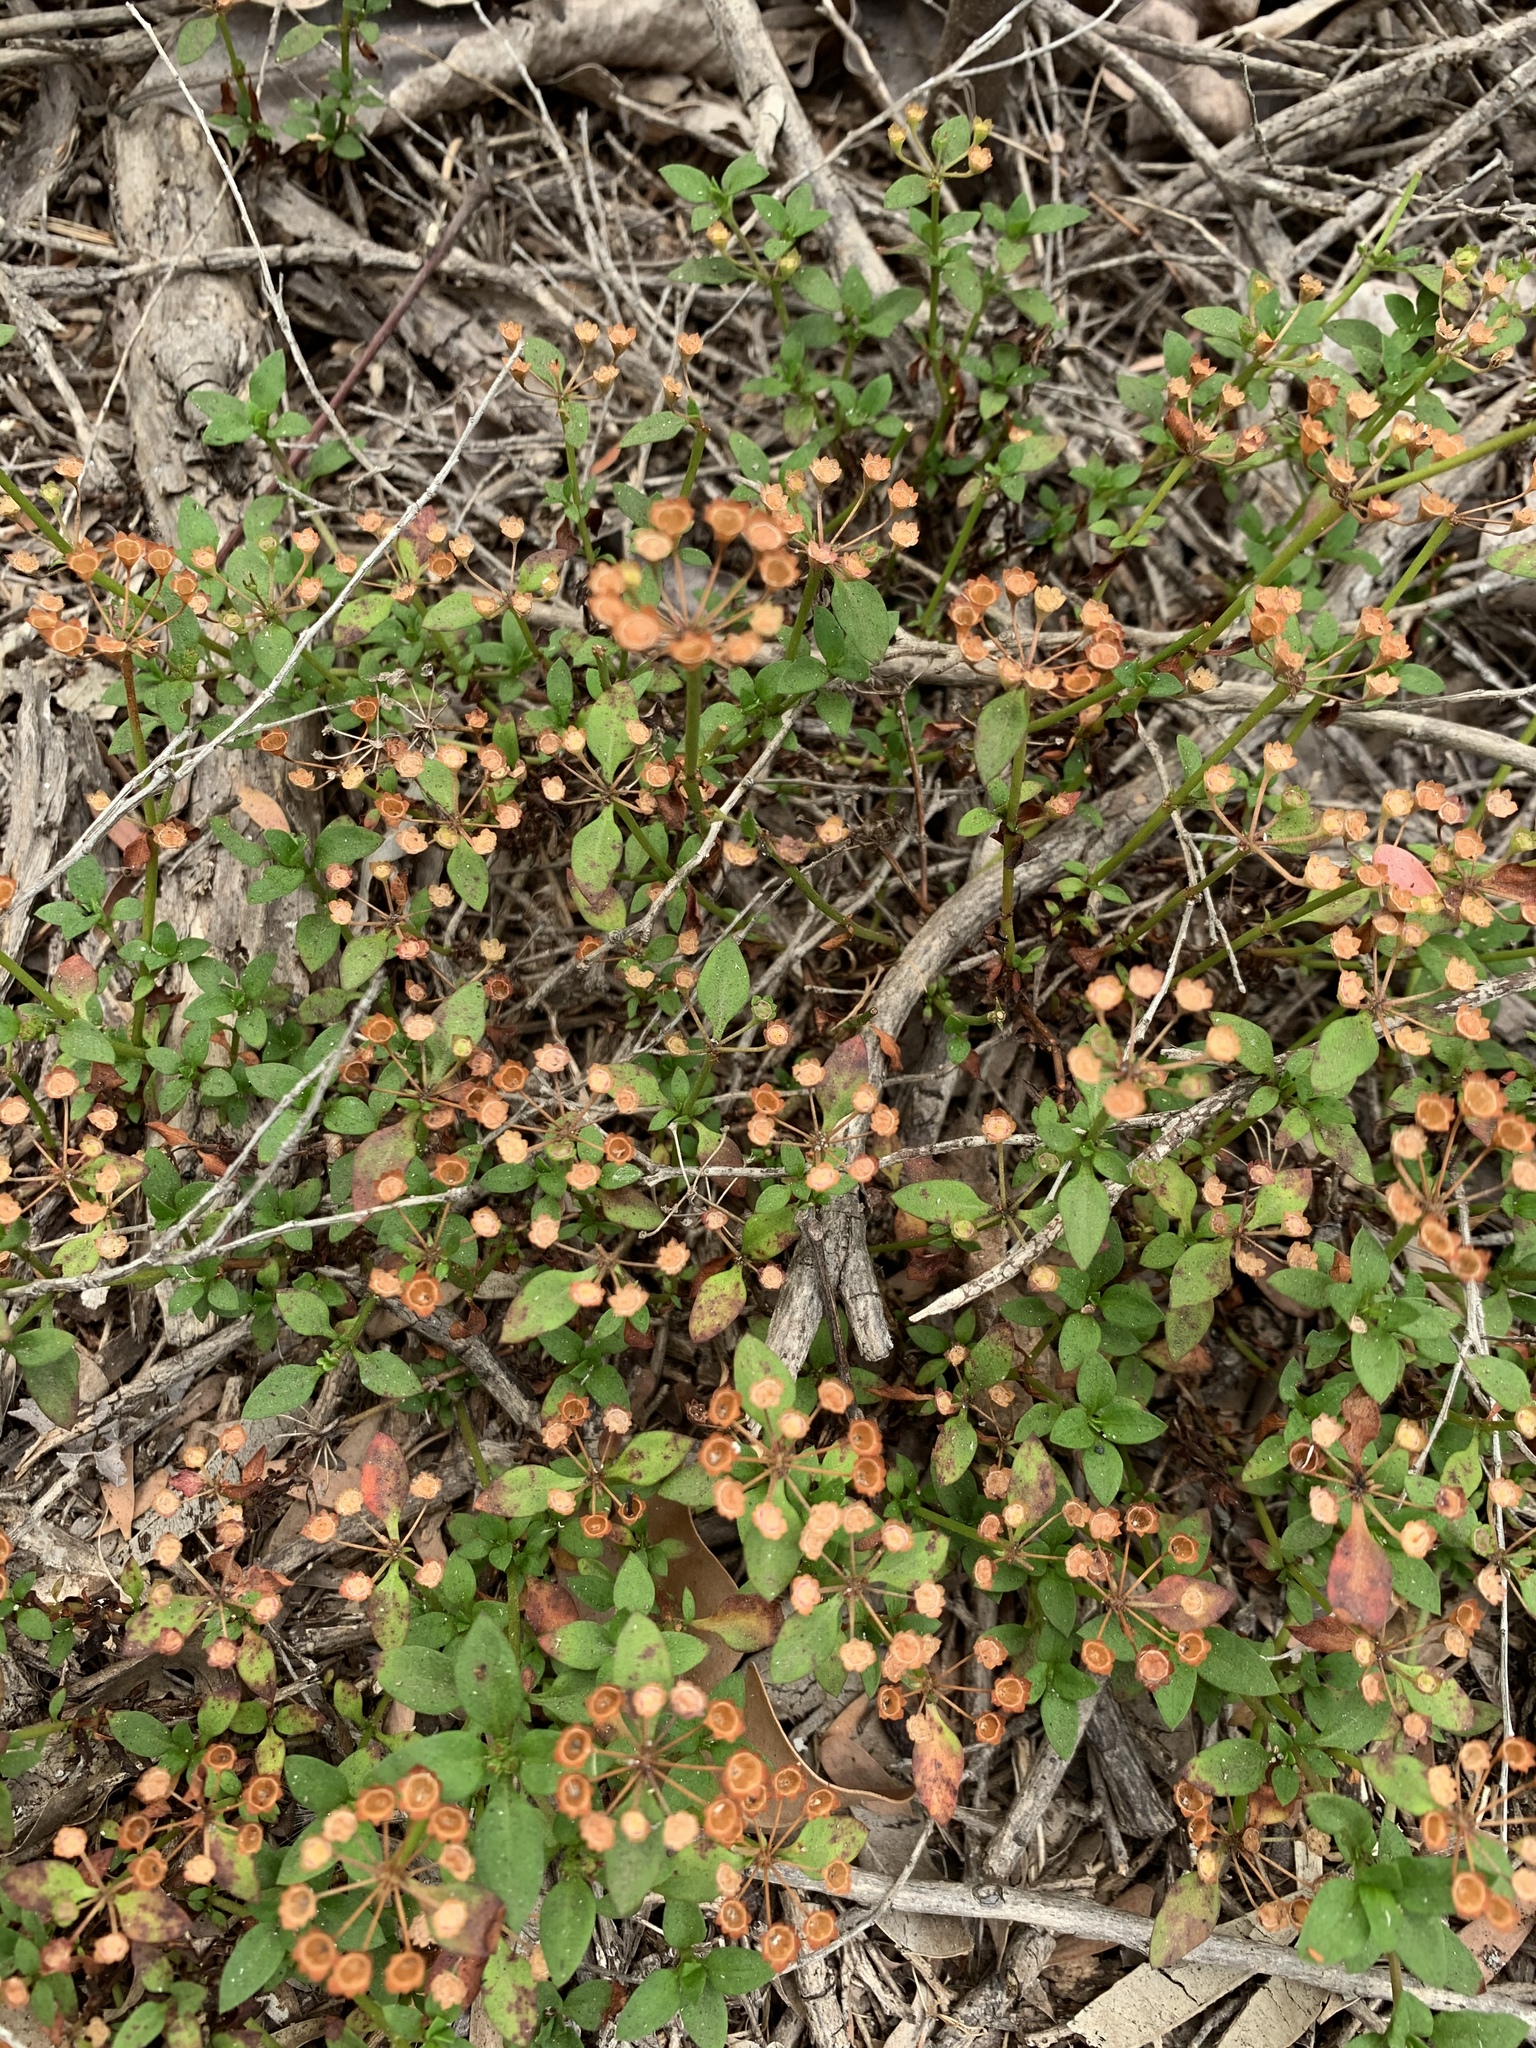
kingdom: Plantae
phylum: Tracheophyta
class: Magnoliopsida
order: Gentianales
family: Rubiaceae
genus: Pomax
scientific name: Pomax umbellata
